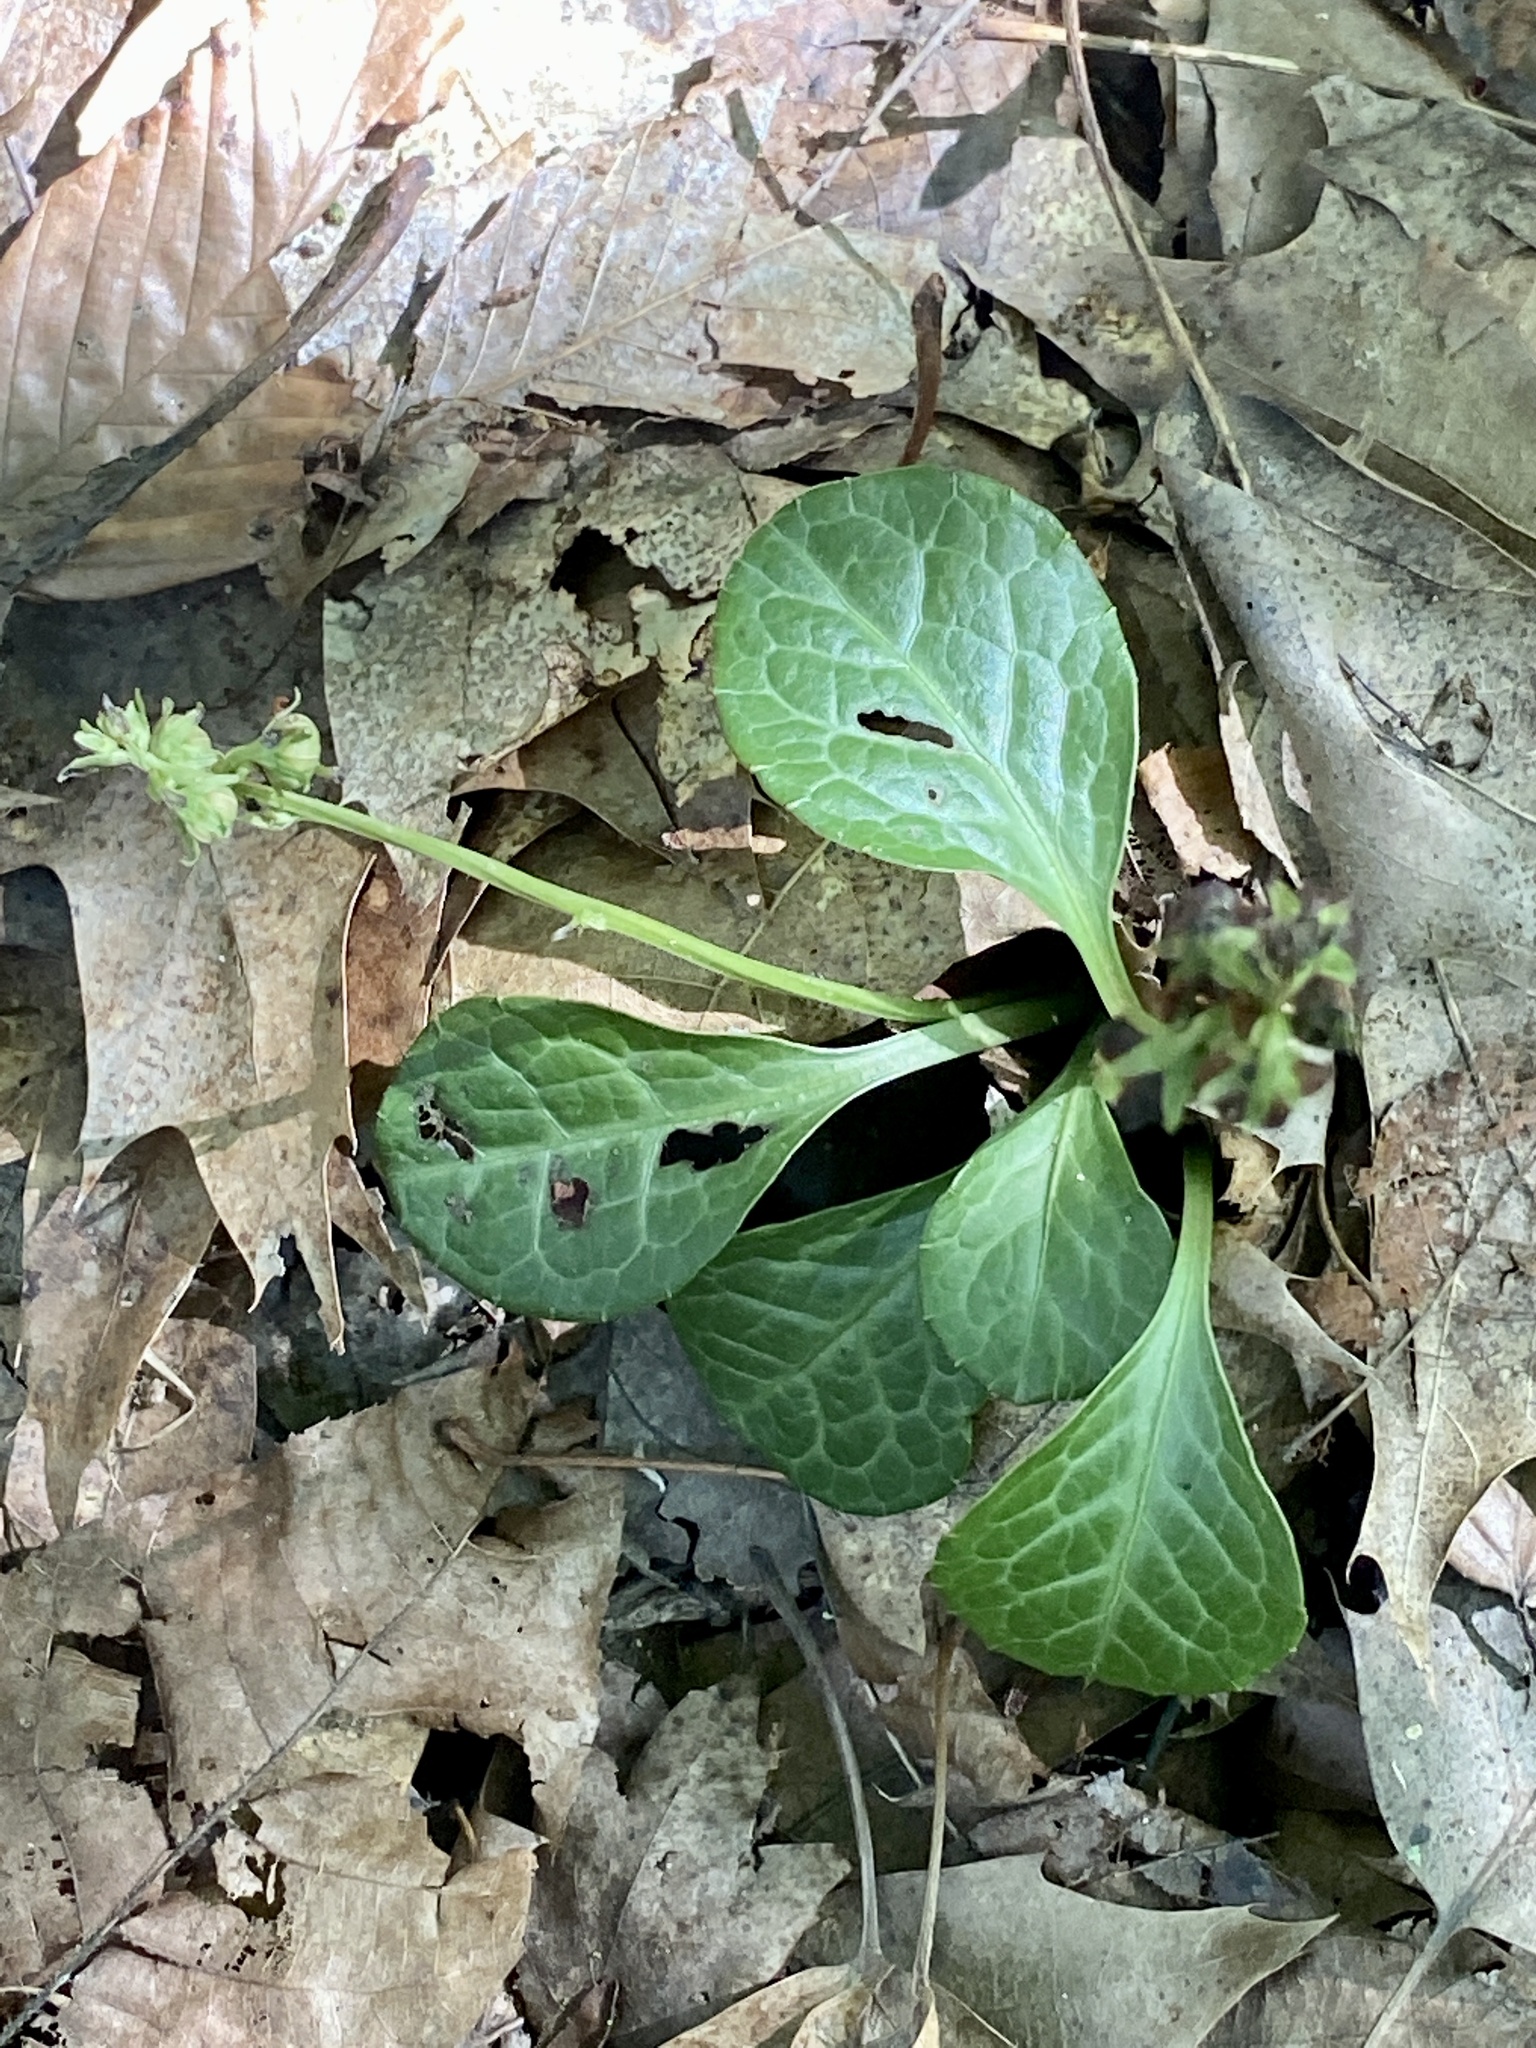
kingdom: Plantae
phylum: Tracheophyta
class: Magnoliopsida
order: Ericales
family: Ericaceae
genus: Pyrola
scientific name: Pyrola americana
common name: American wintergreen
